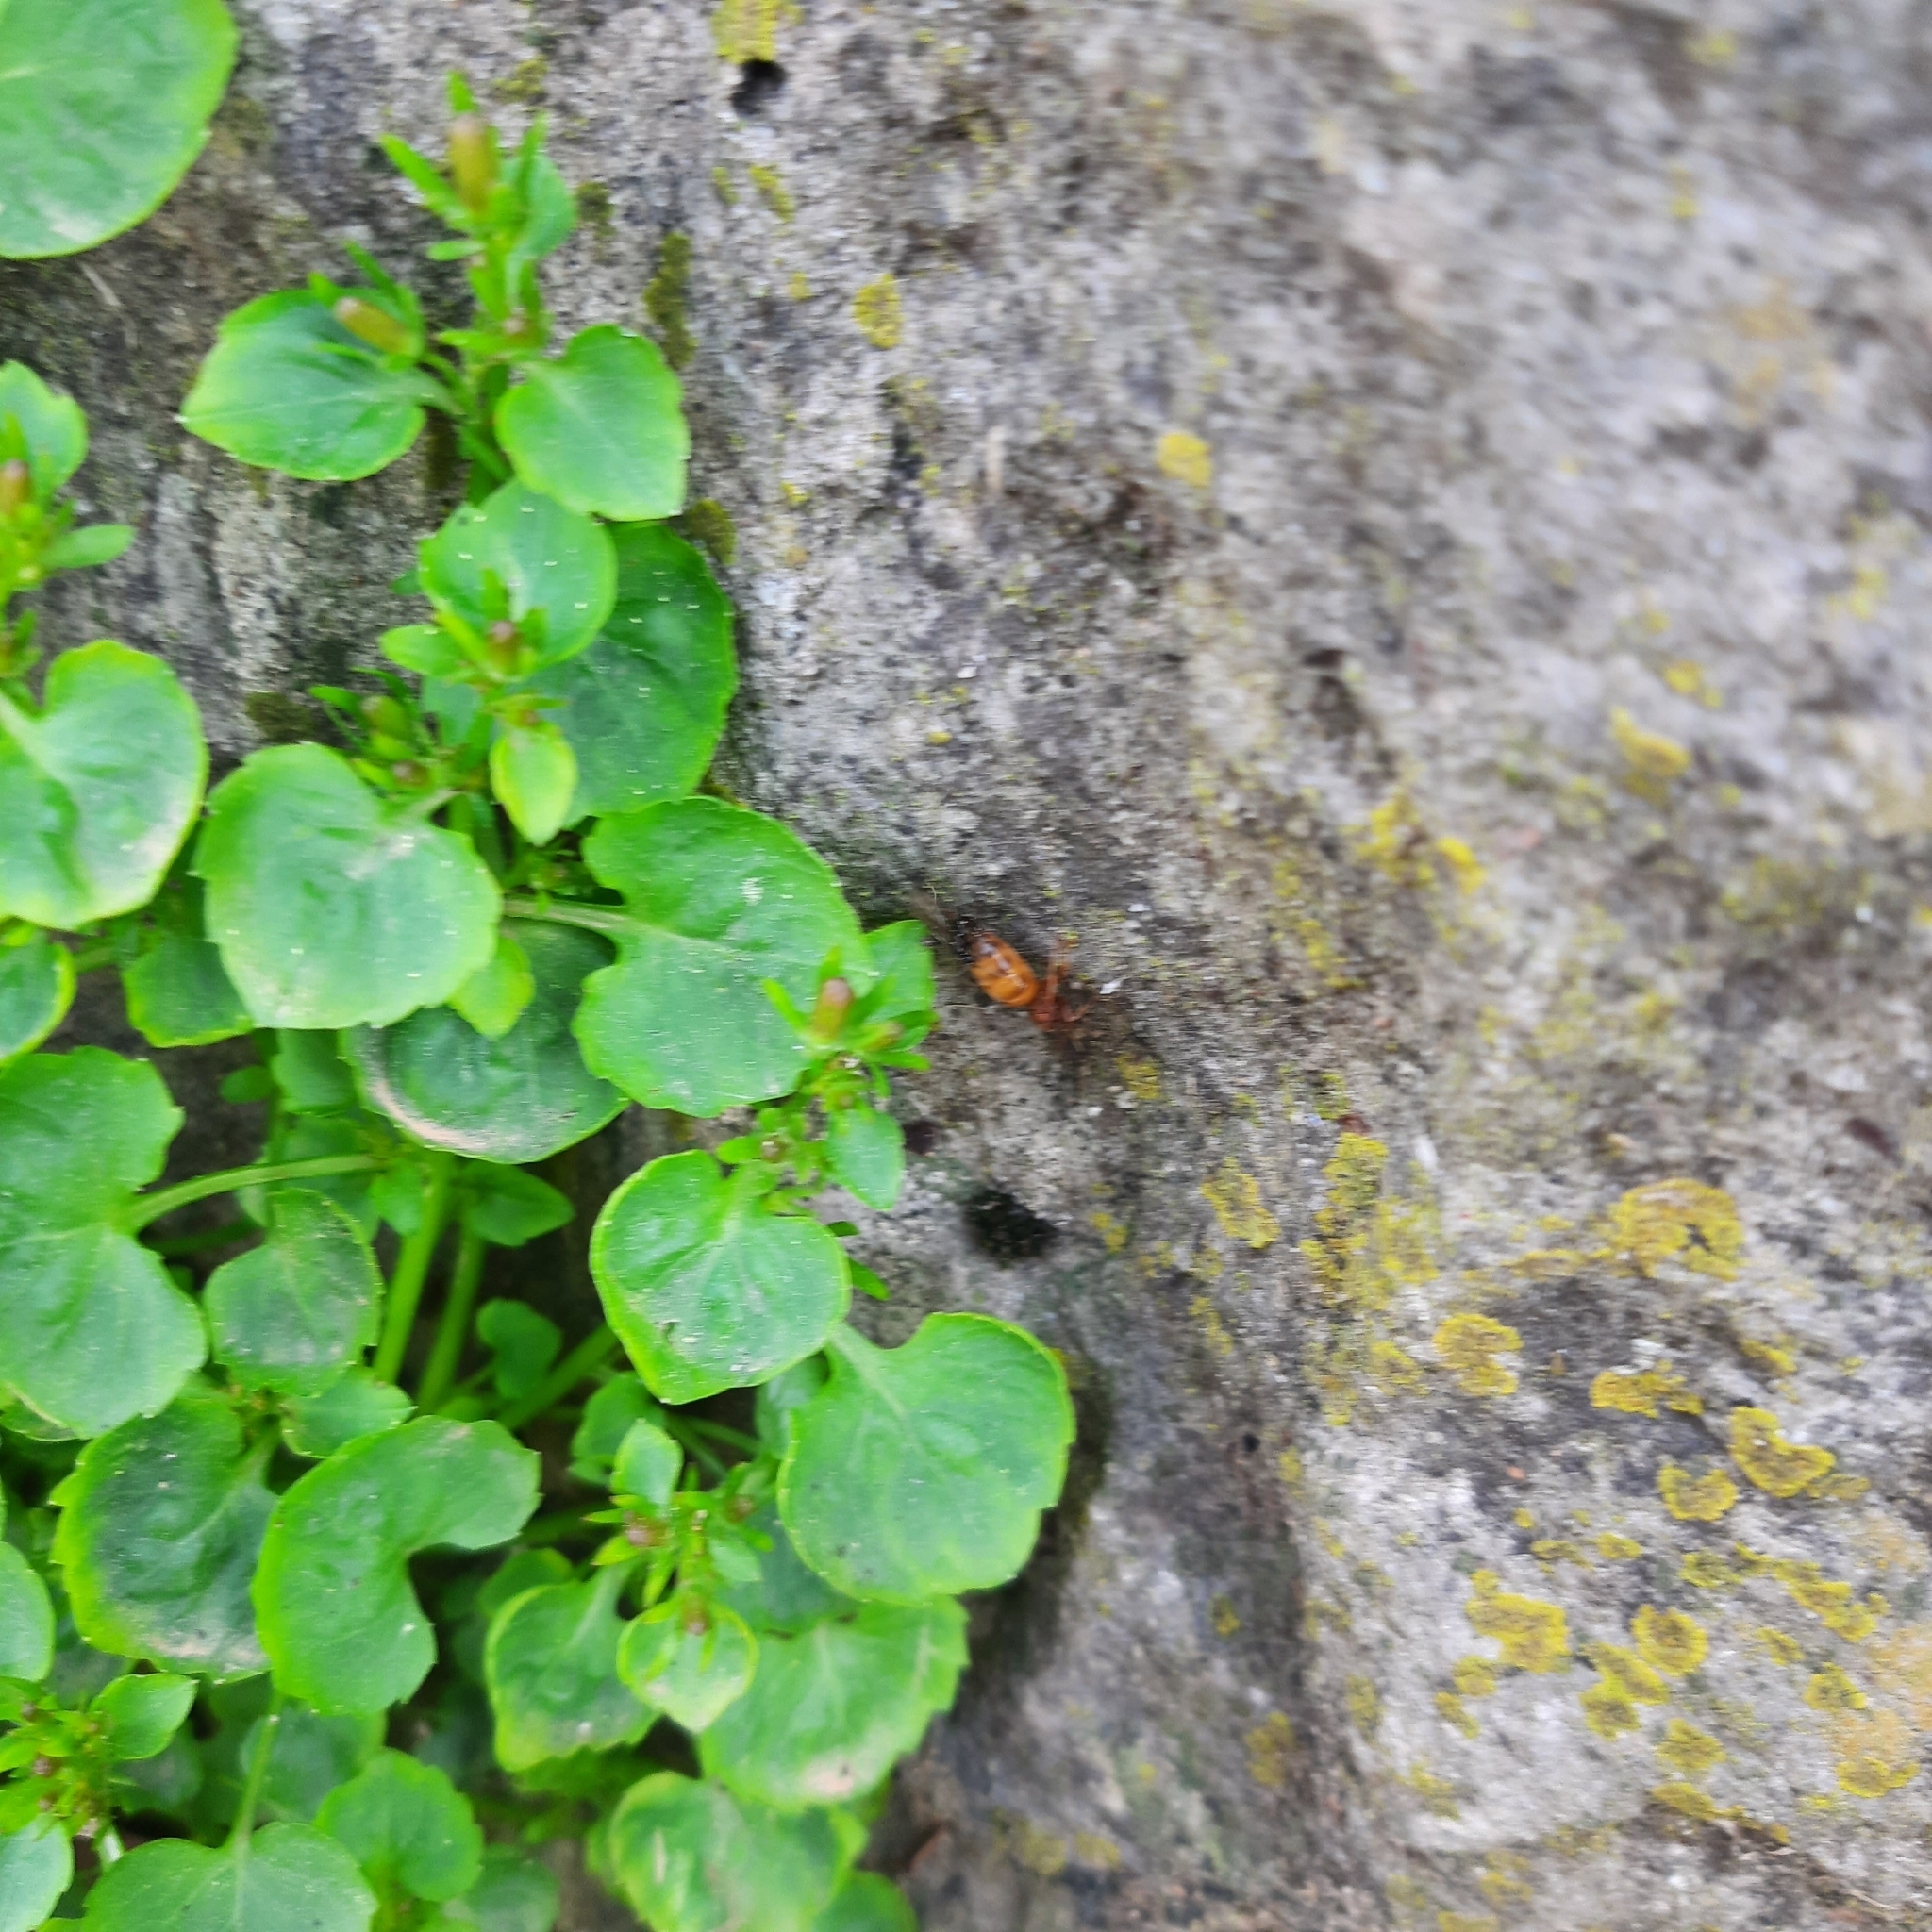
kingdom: Animalia
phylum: Arthropoda
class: Insecta
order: Hymenoptera
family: Formicidae
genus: Prenolepis
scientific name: Prenolepis nitens
